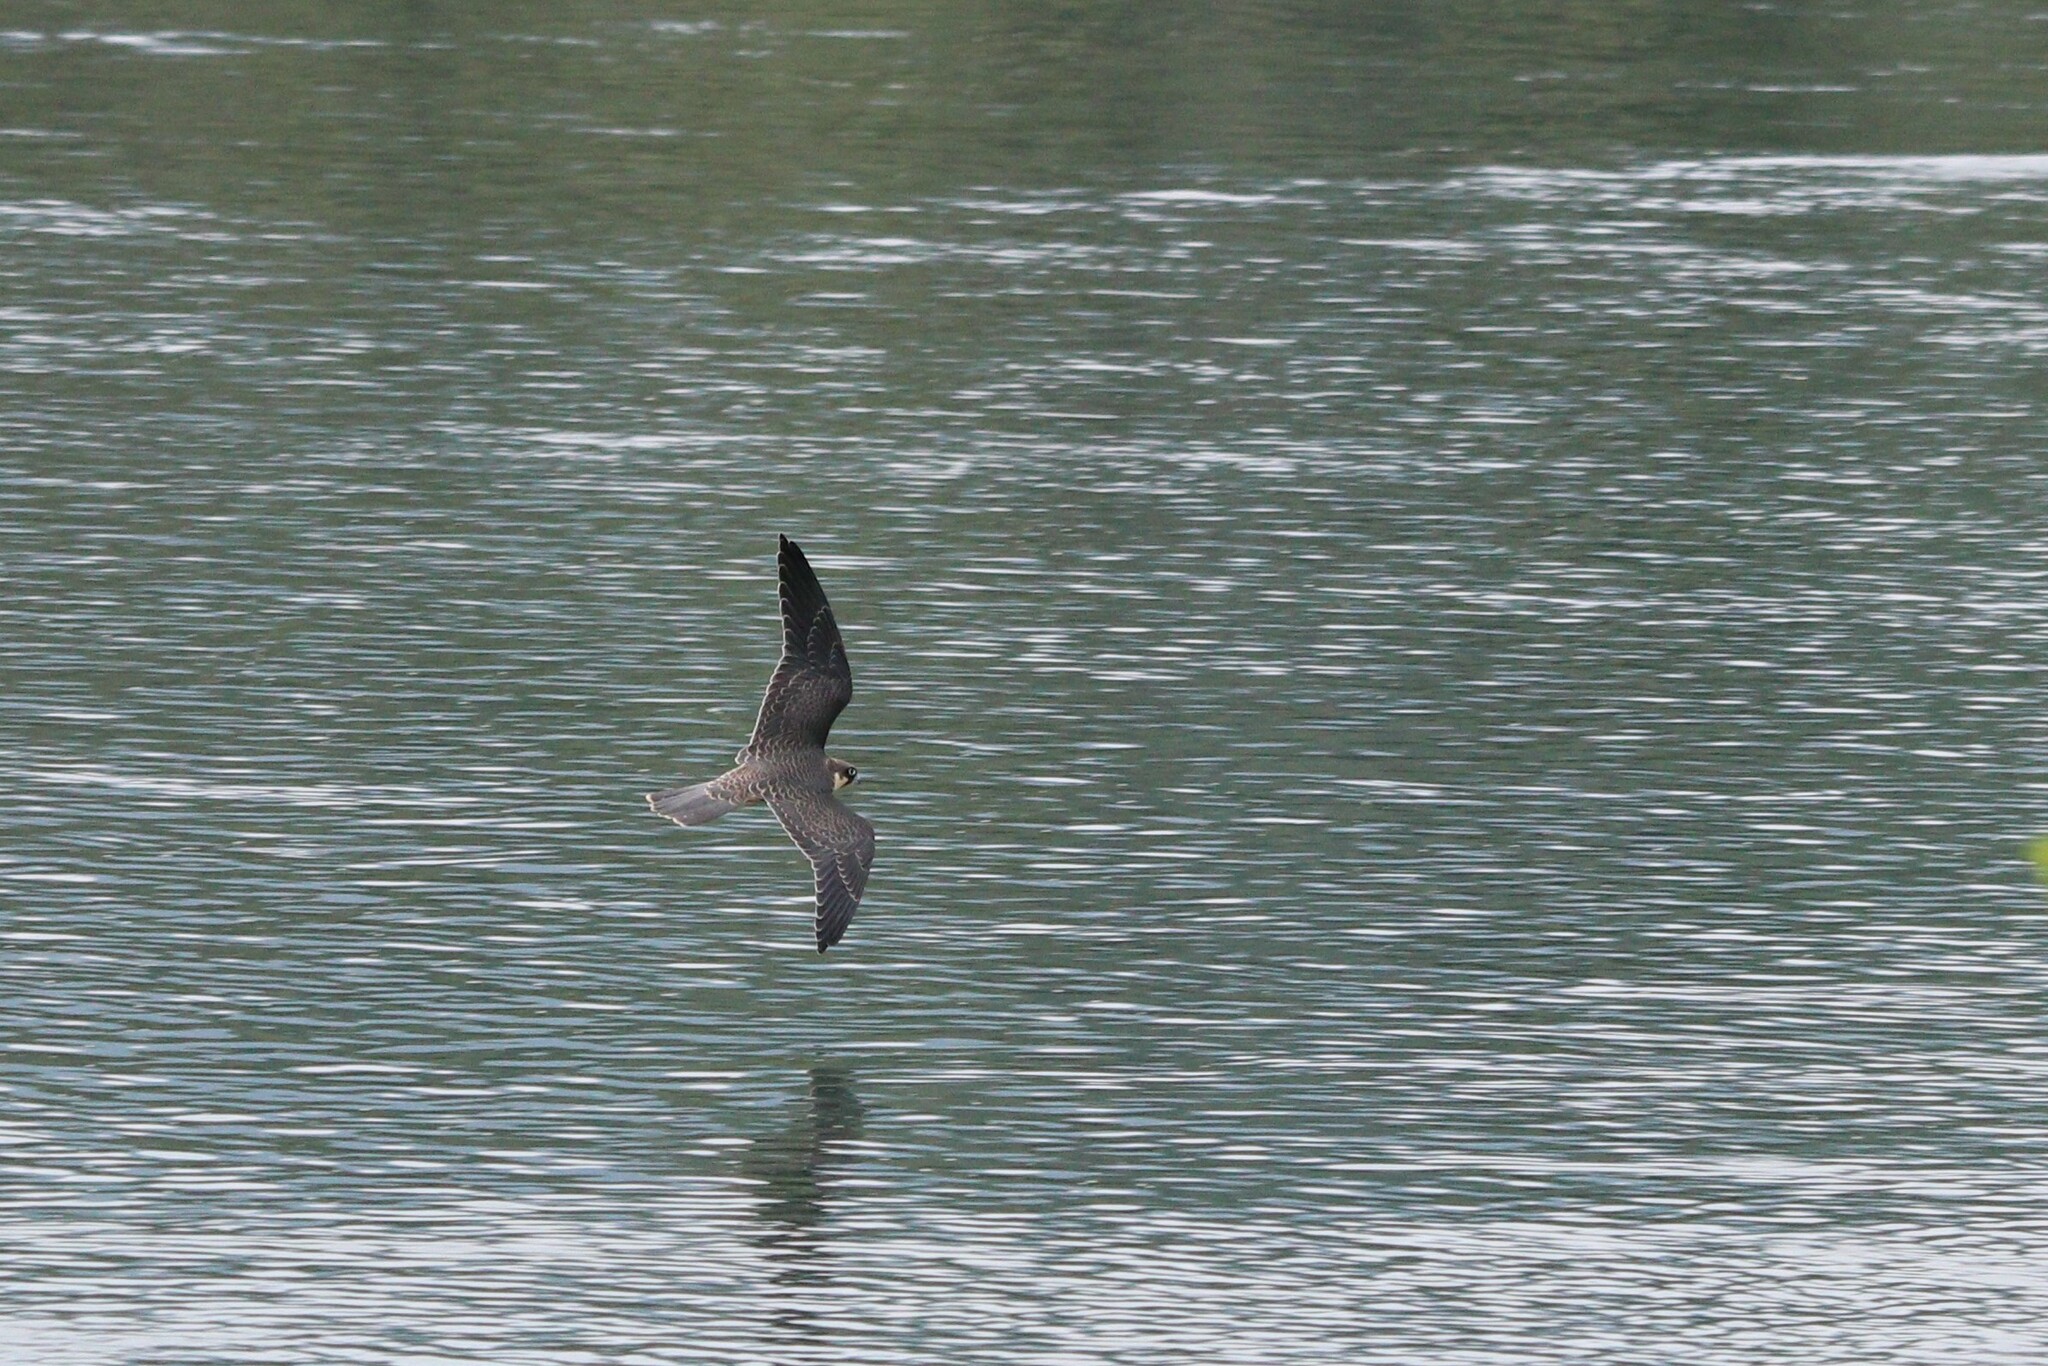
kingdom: Animalia
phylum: Chordata
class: Aves
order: Falconiformes
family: Falconidae
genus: Falco
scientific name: Falco subbuteo
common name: Eurasian hobby
